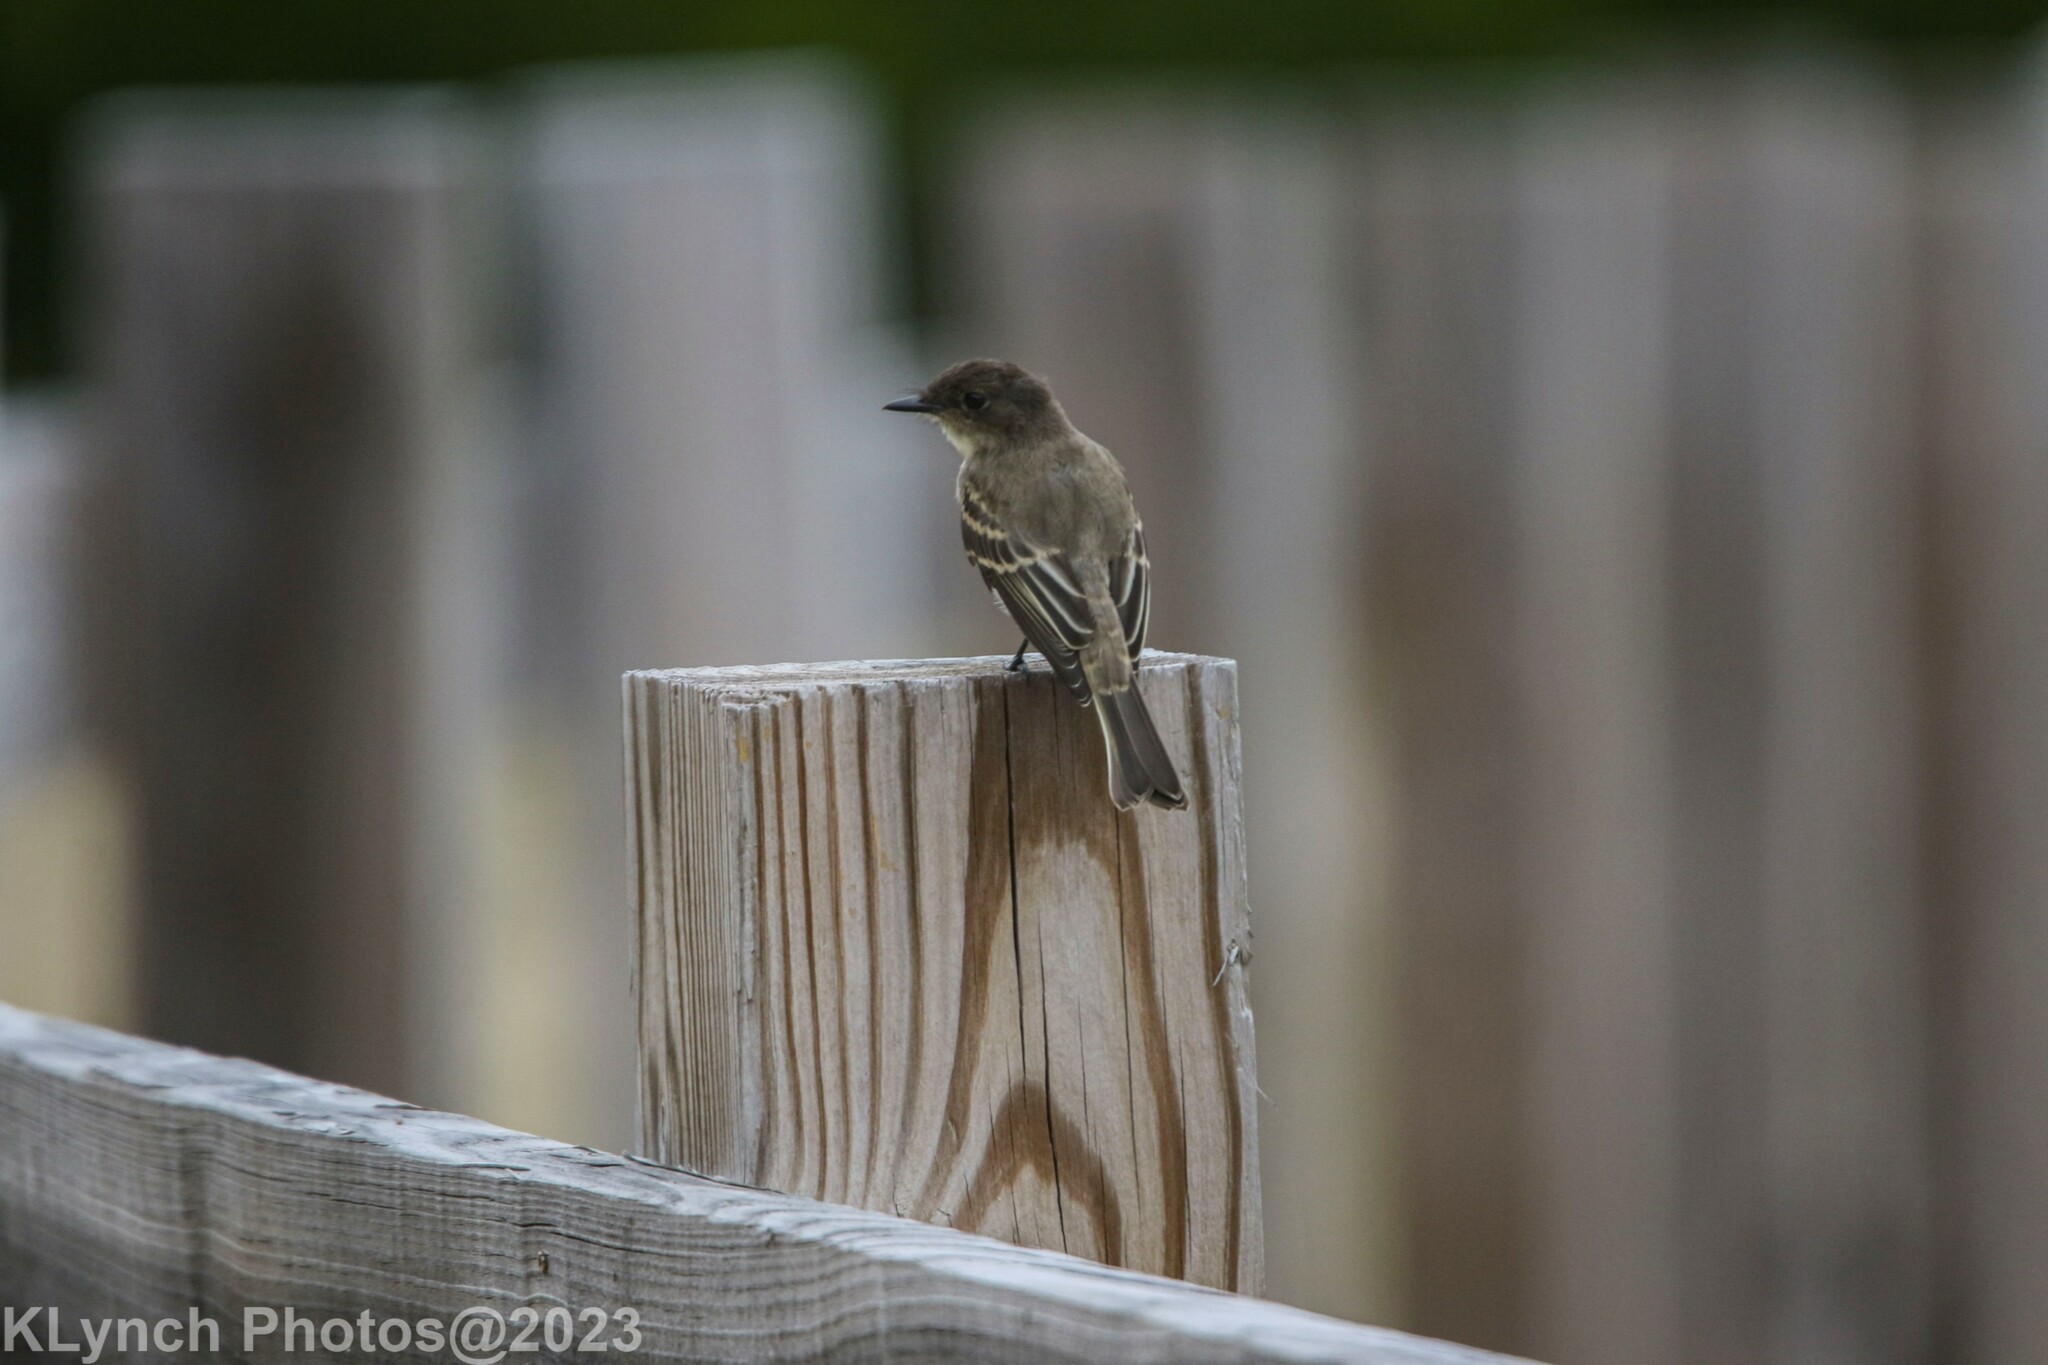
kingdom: Animalia
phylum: Chordata
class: Aves
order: Passeriformes
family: Tyrannidae
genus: Sayornis
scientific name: Sayornis phoebe
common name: Eastern phoebe
